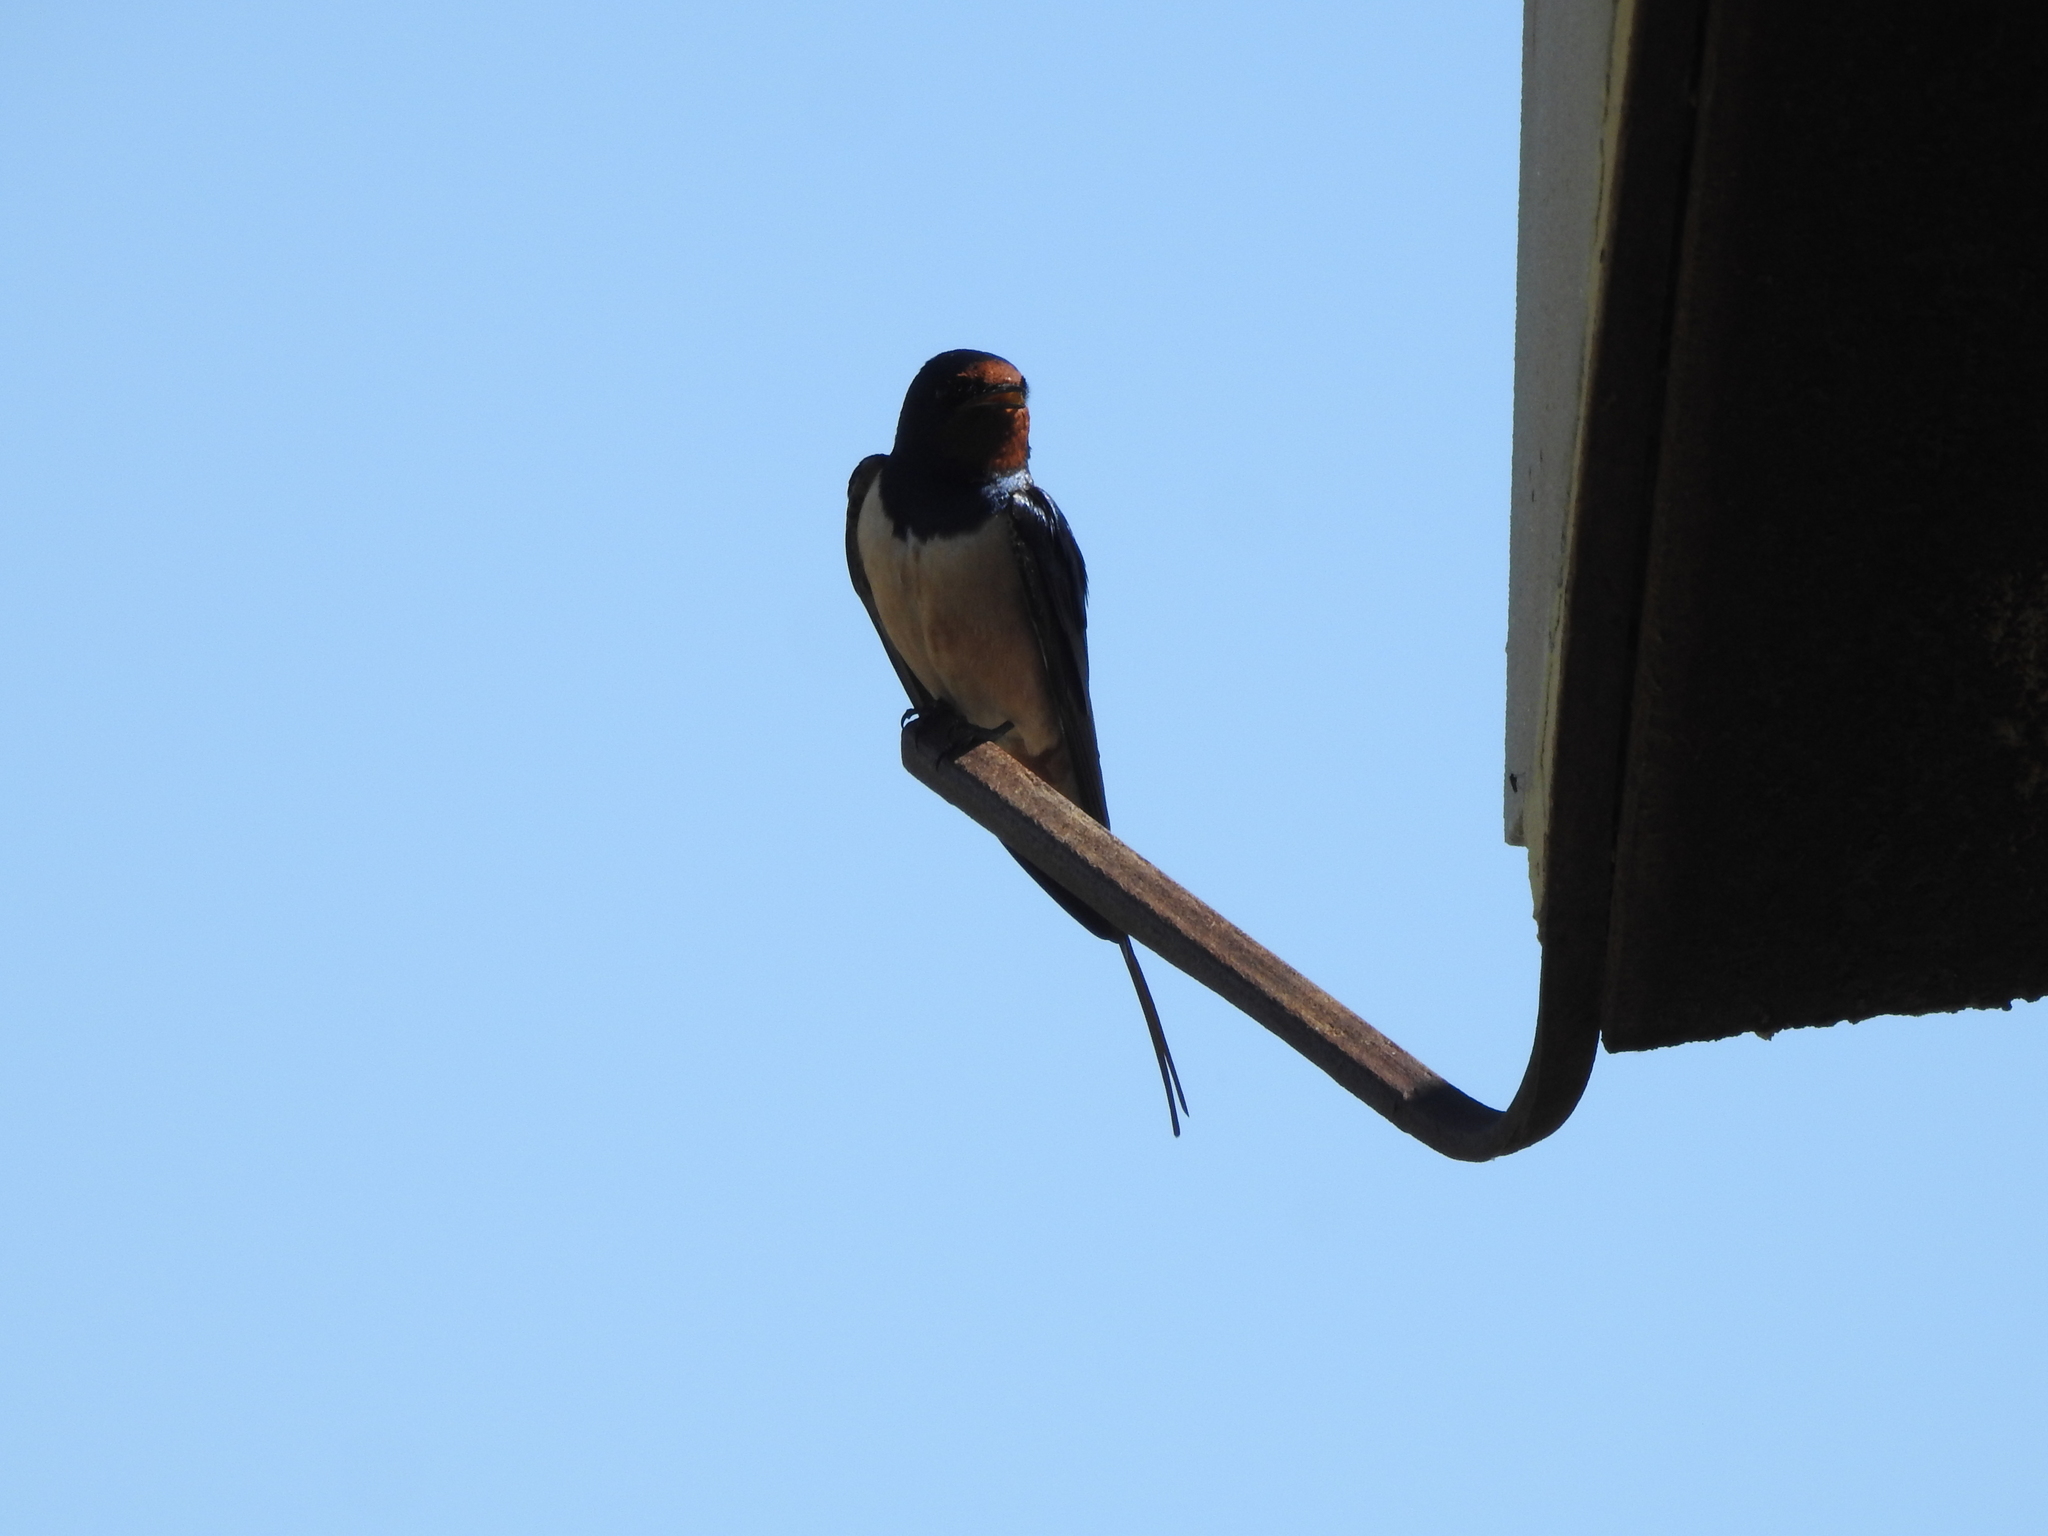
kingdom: Animalia
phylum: Chordata
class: Aves
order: Passeriformes
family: Hirundinidae
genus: Hirundo
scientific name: Hirundo rustica
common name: Barn swallow
